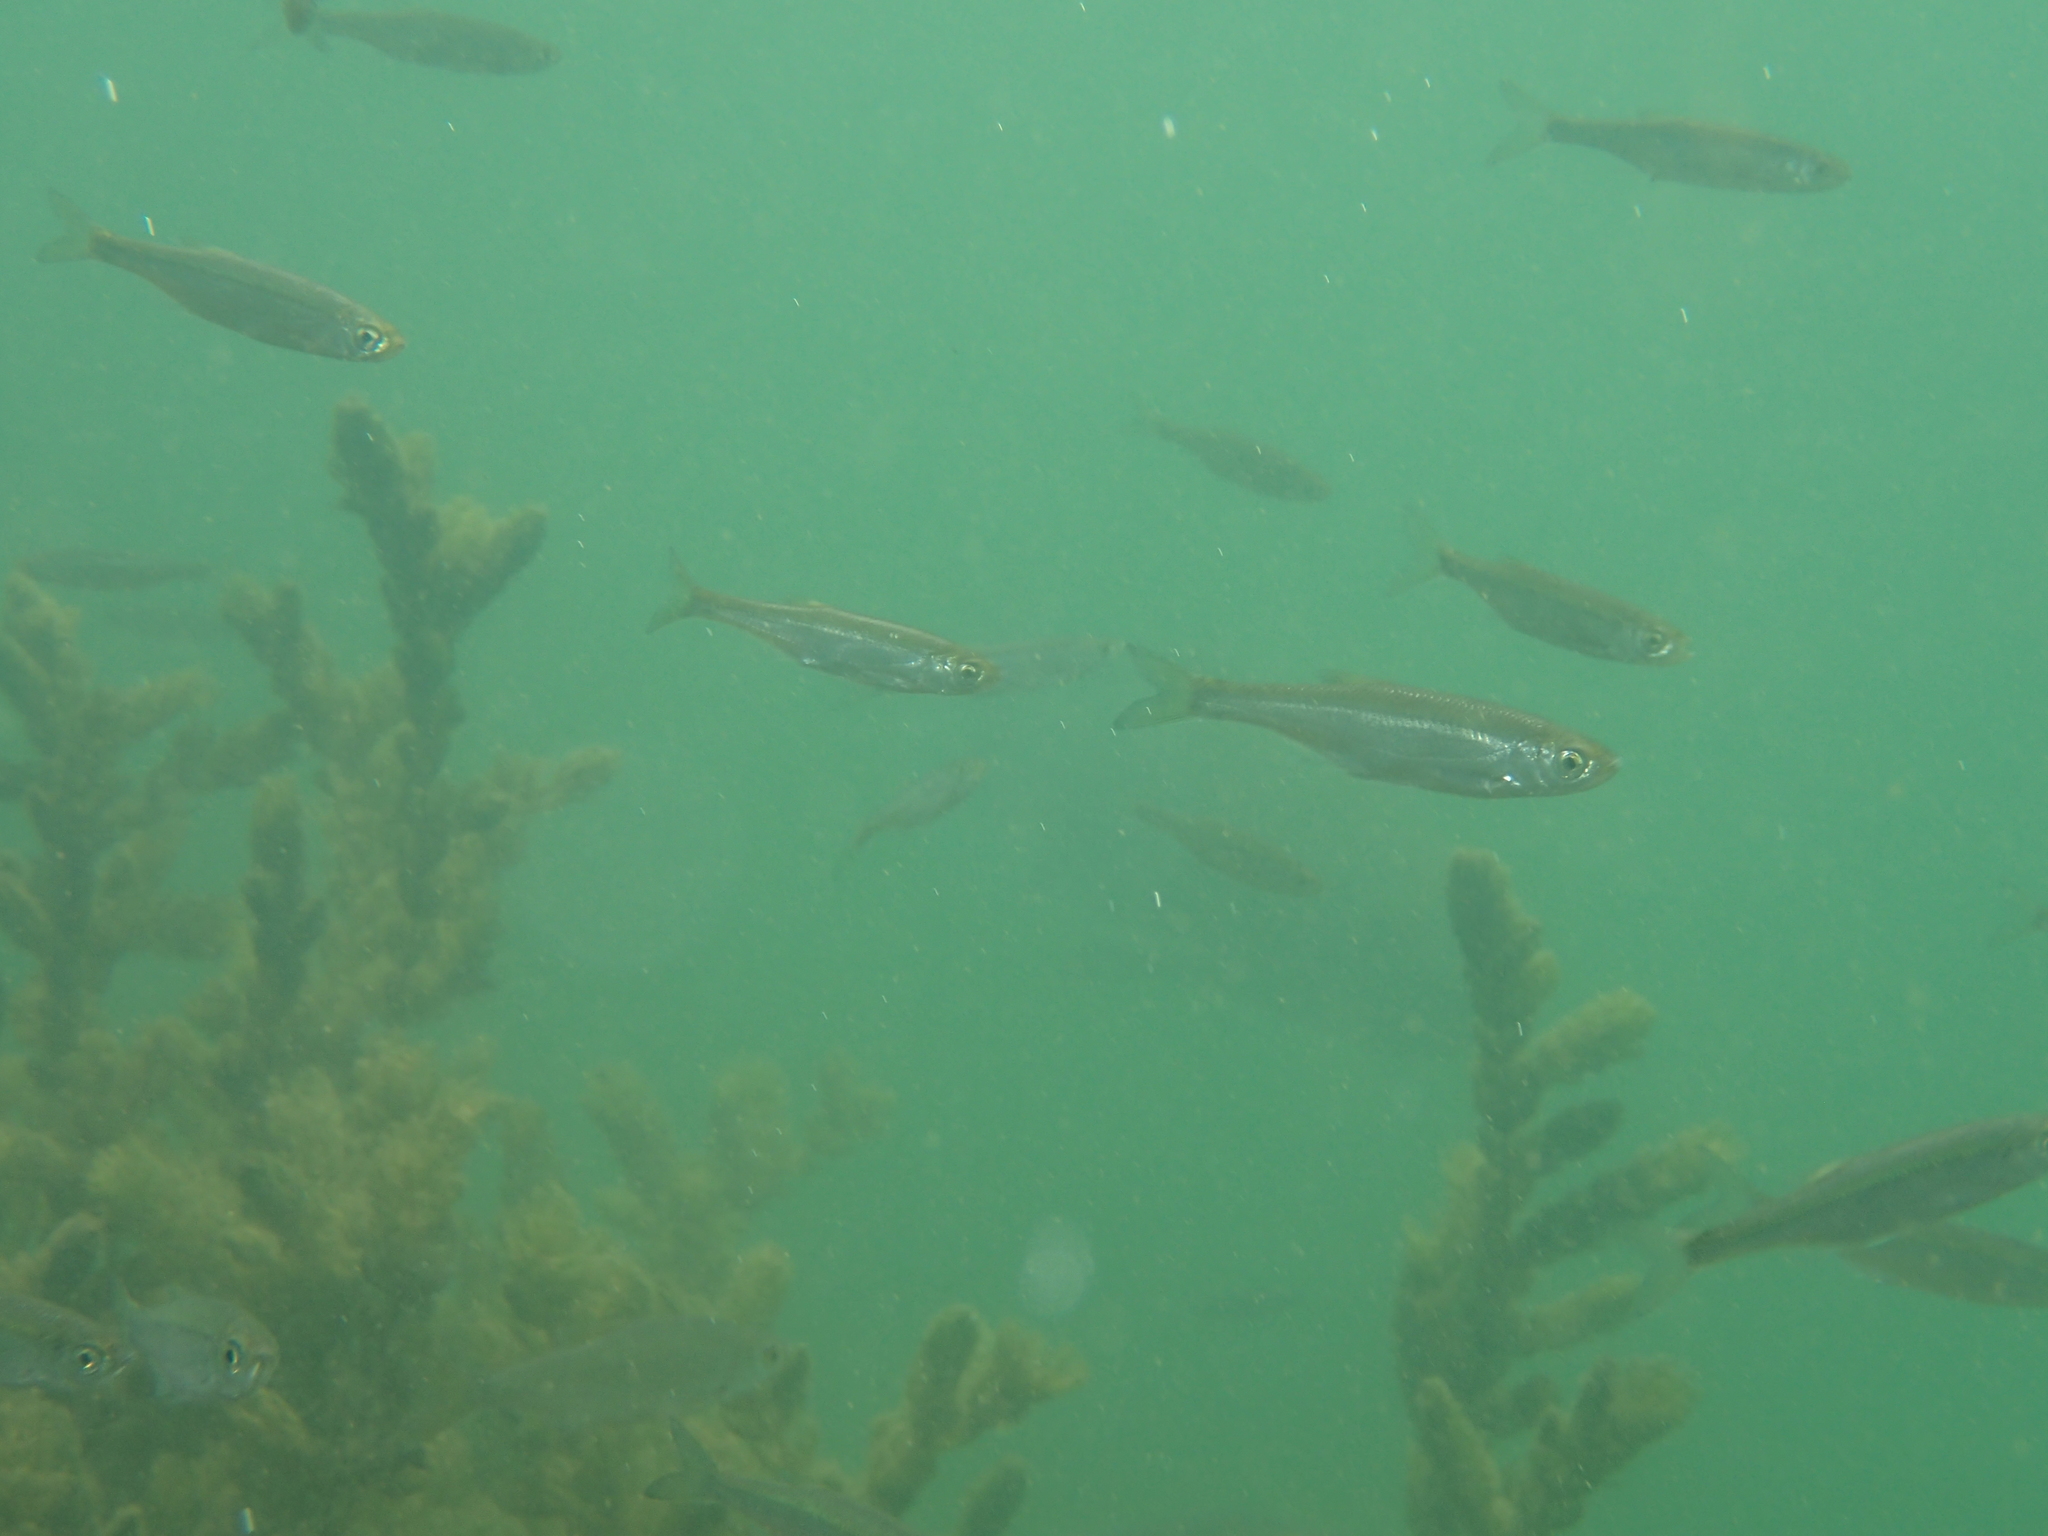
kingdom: Animalia
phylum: Chordata
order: Cypriniformes
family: Cyprinidae
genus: Alburnus
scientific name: Alburnus alburnus
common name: Bleak
